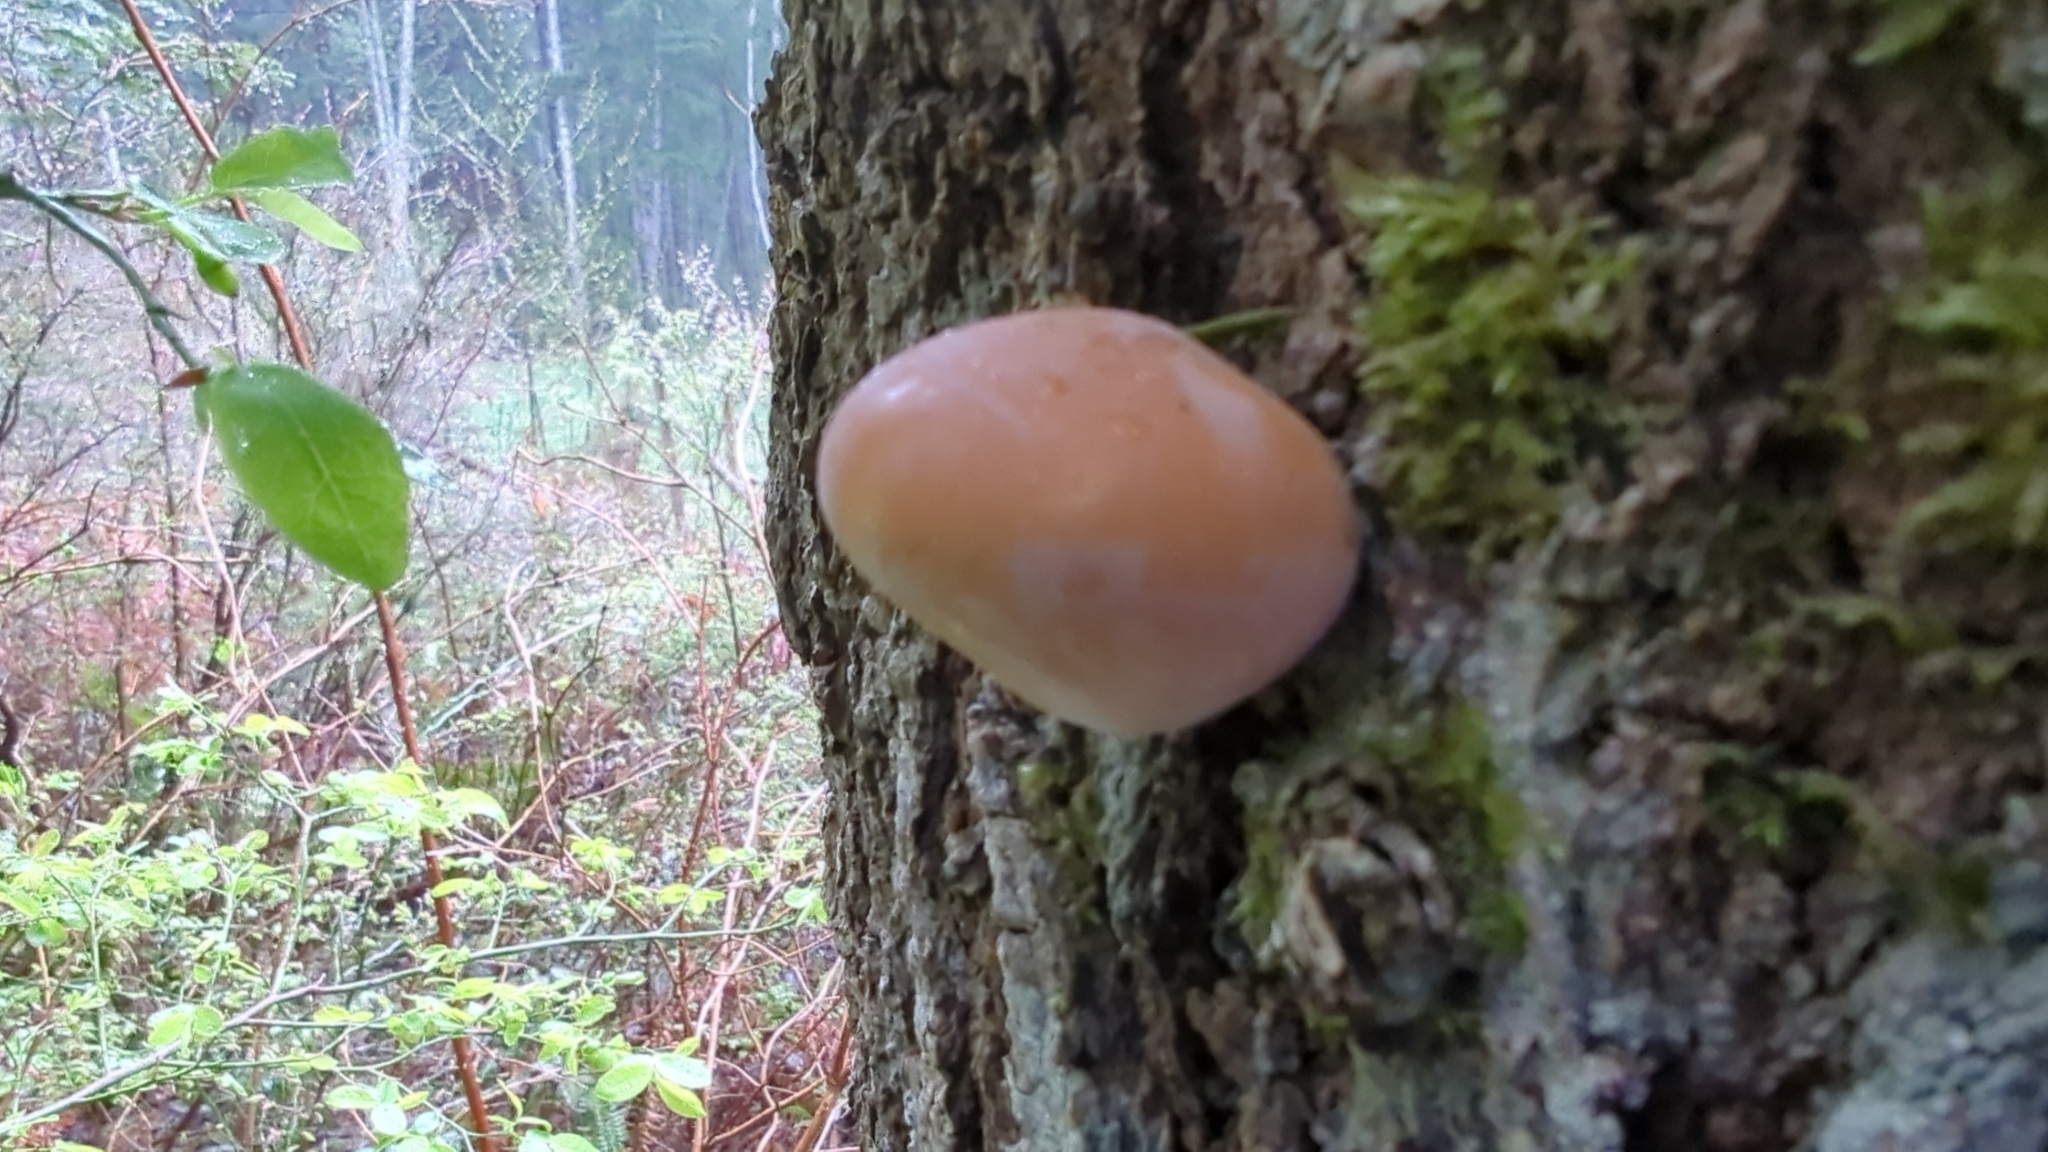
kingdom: Fungi
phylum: Basidiomycota
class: Agaricomycetes
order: Polyporales
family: Polyporaceae
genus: Cryptoporus
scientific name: Cryptoporus volvatus
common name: Veiled polypore
